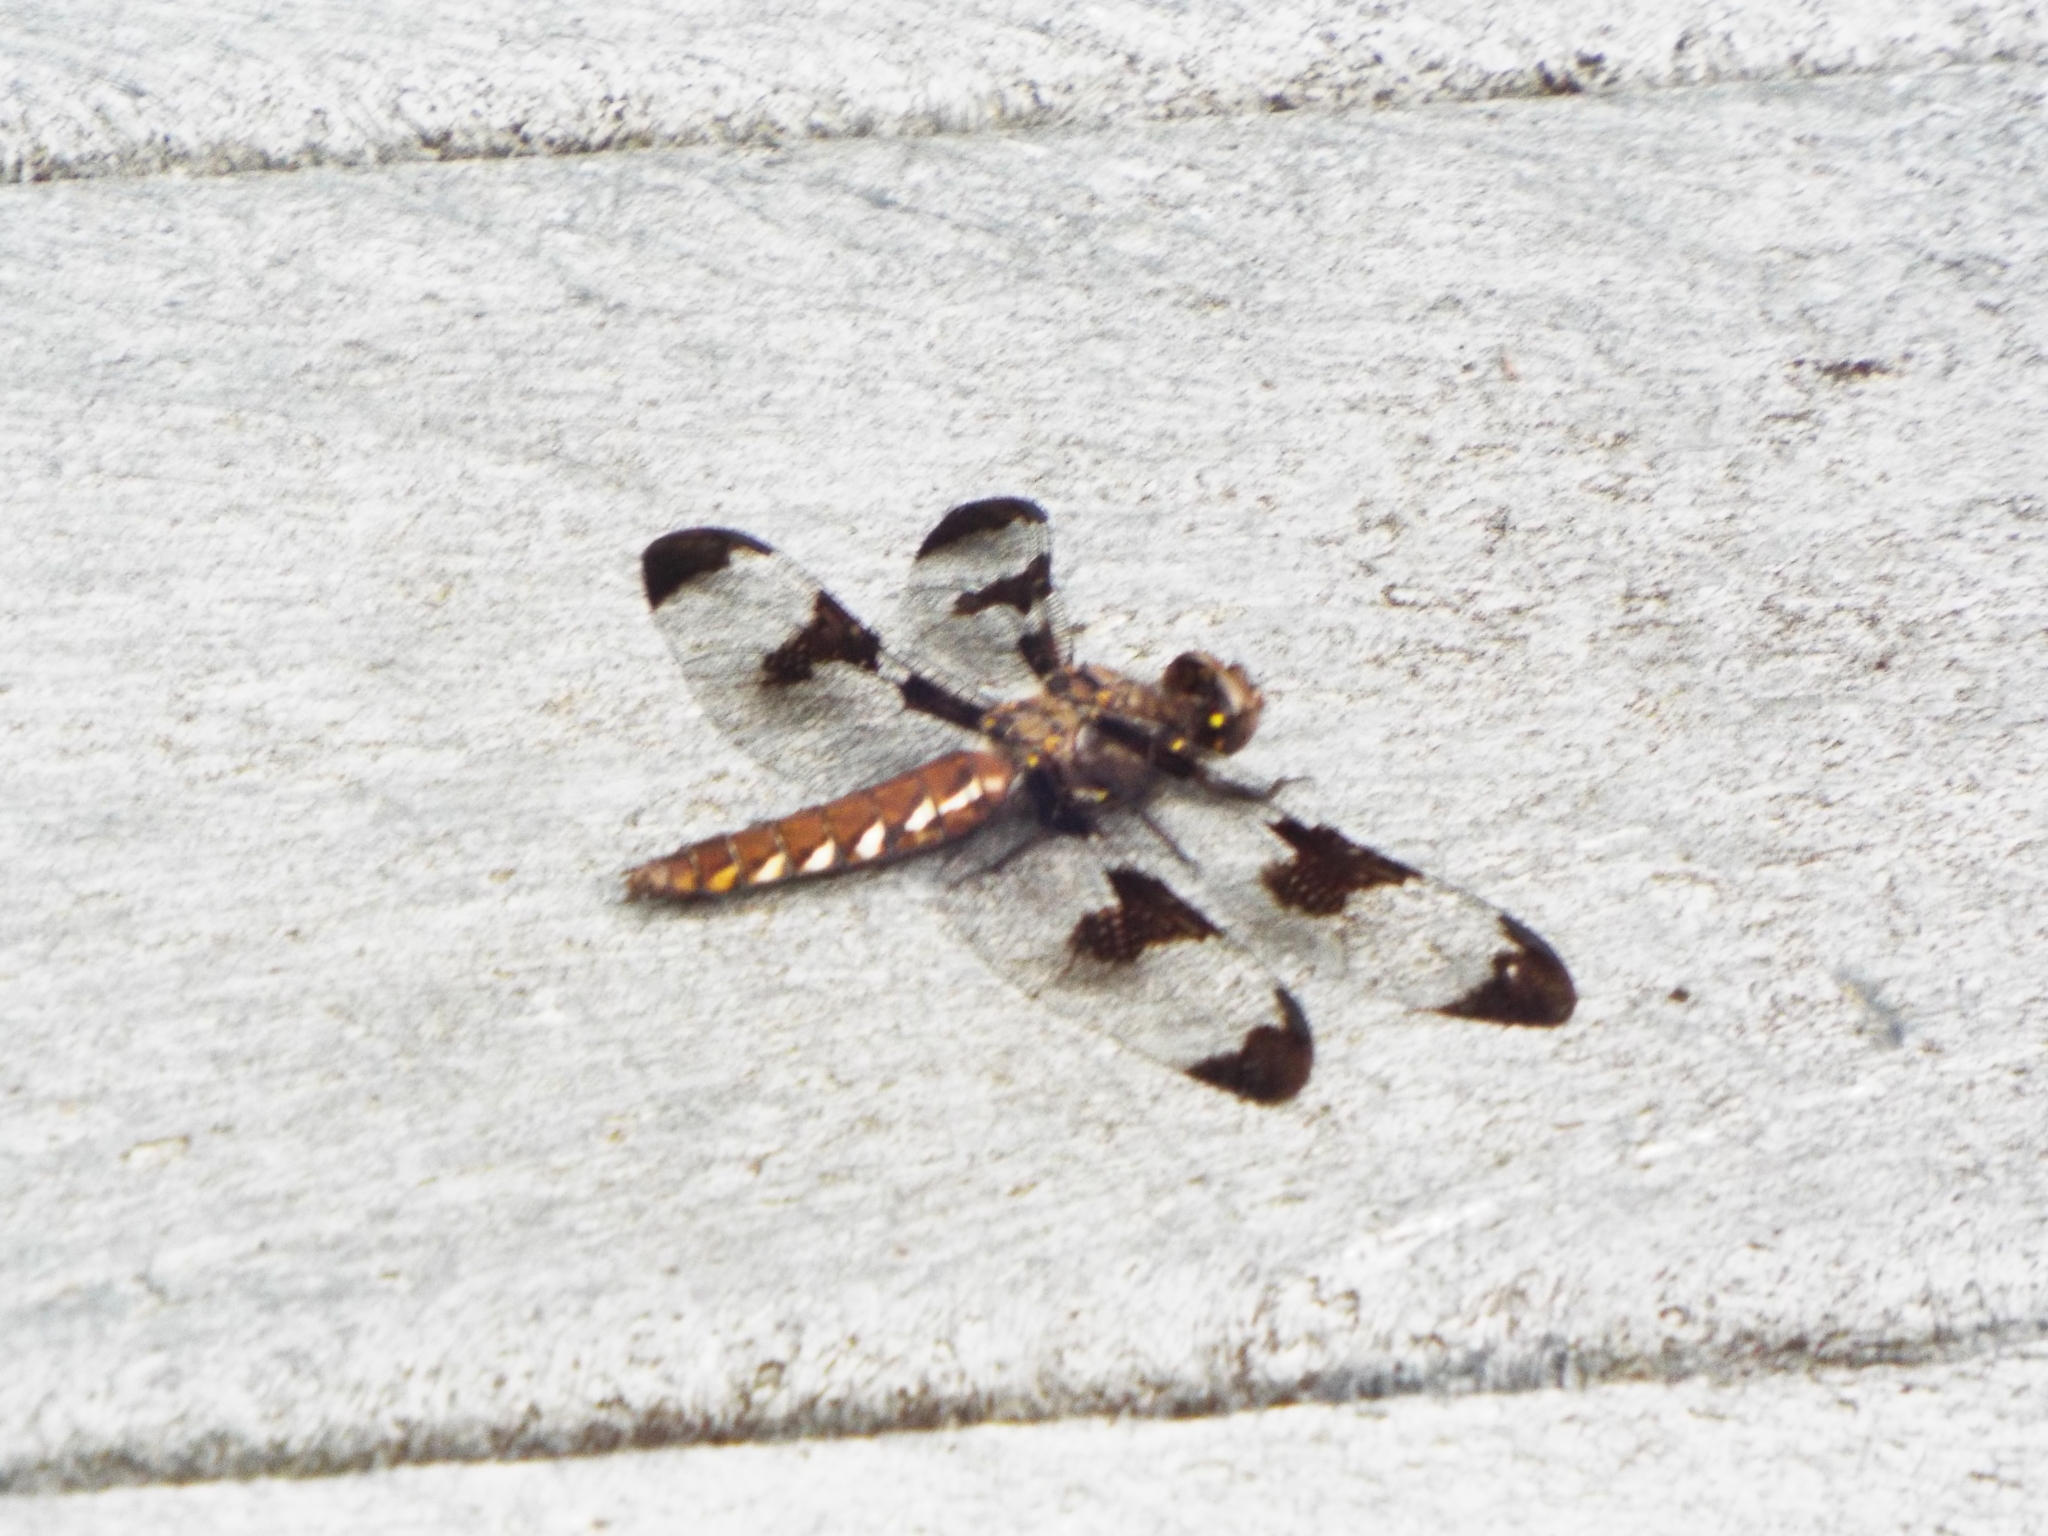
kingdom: Animalia
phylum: Arthropoda
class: Insecta
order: Odonata
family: Libellulidae
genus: Plathemis
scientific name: Plathemis lydia
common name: Common whitetail
